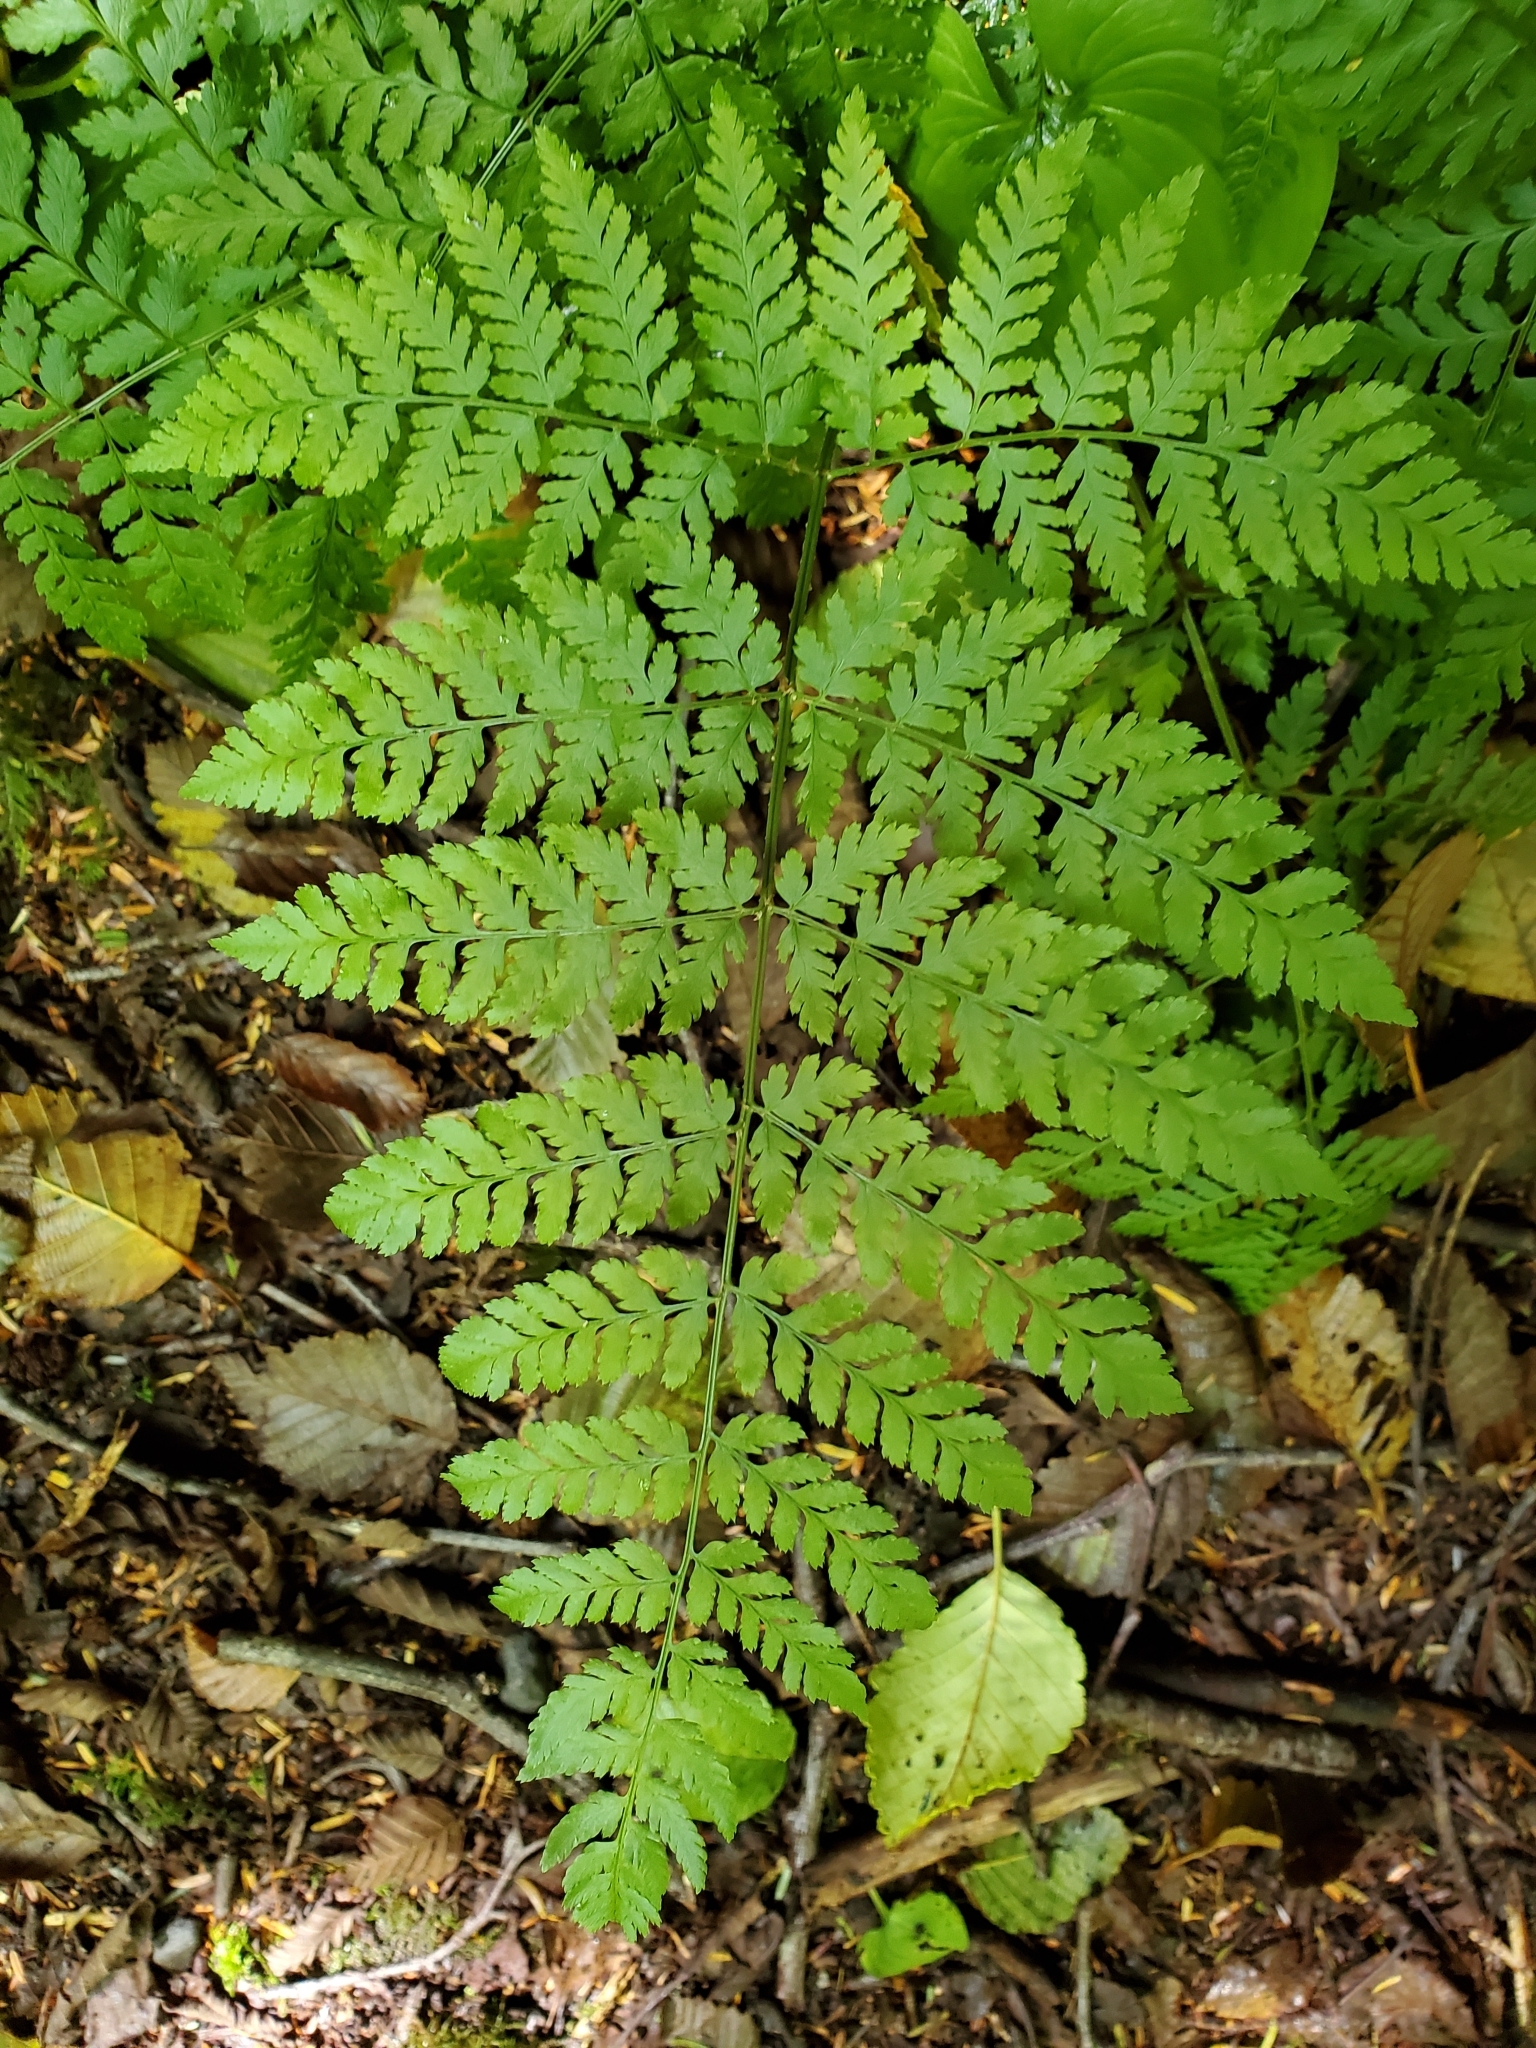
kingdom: Plantae
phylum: Tracheophyta
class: Polypodiopsida
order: Polypodiales
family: Dryopteridaceae
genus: Dryopteris
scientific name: Dryopteris expansa
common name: Northern buckler fern
